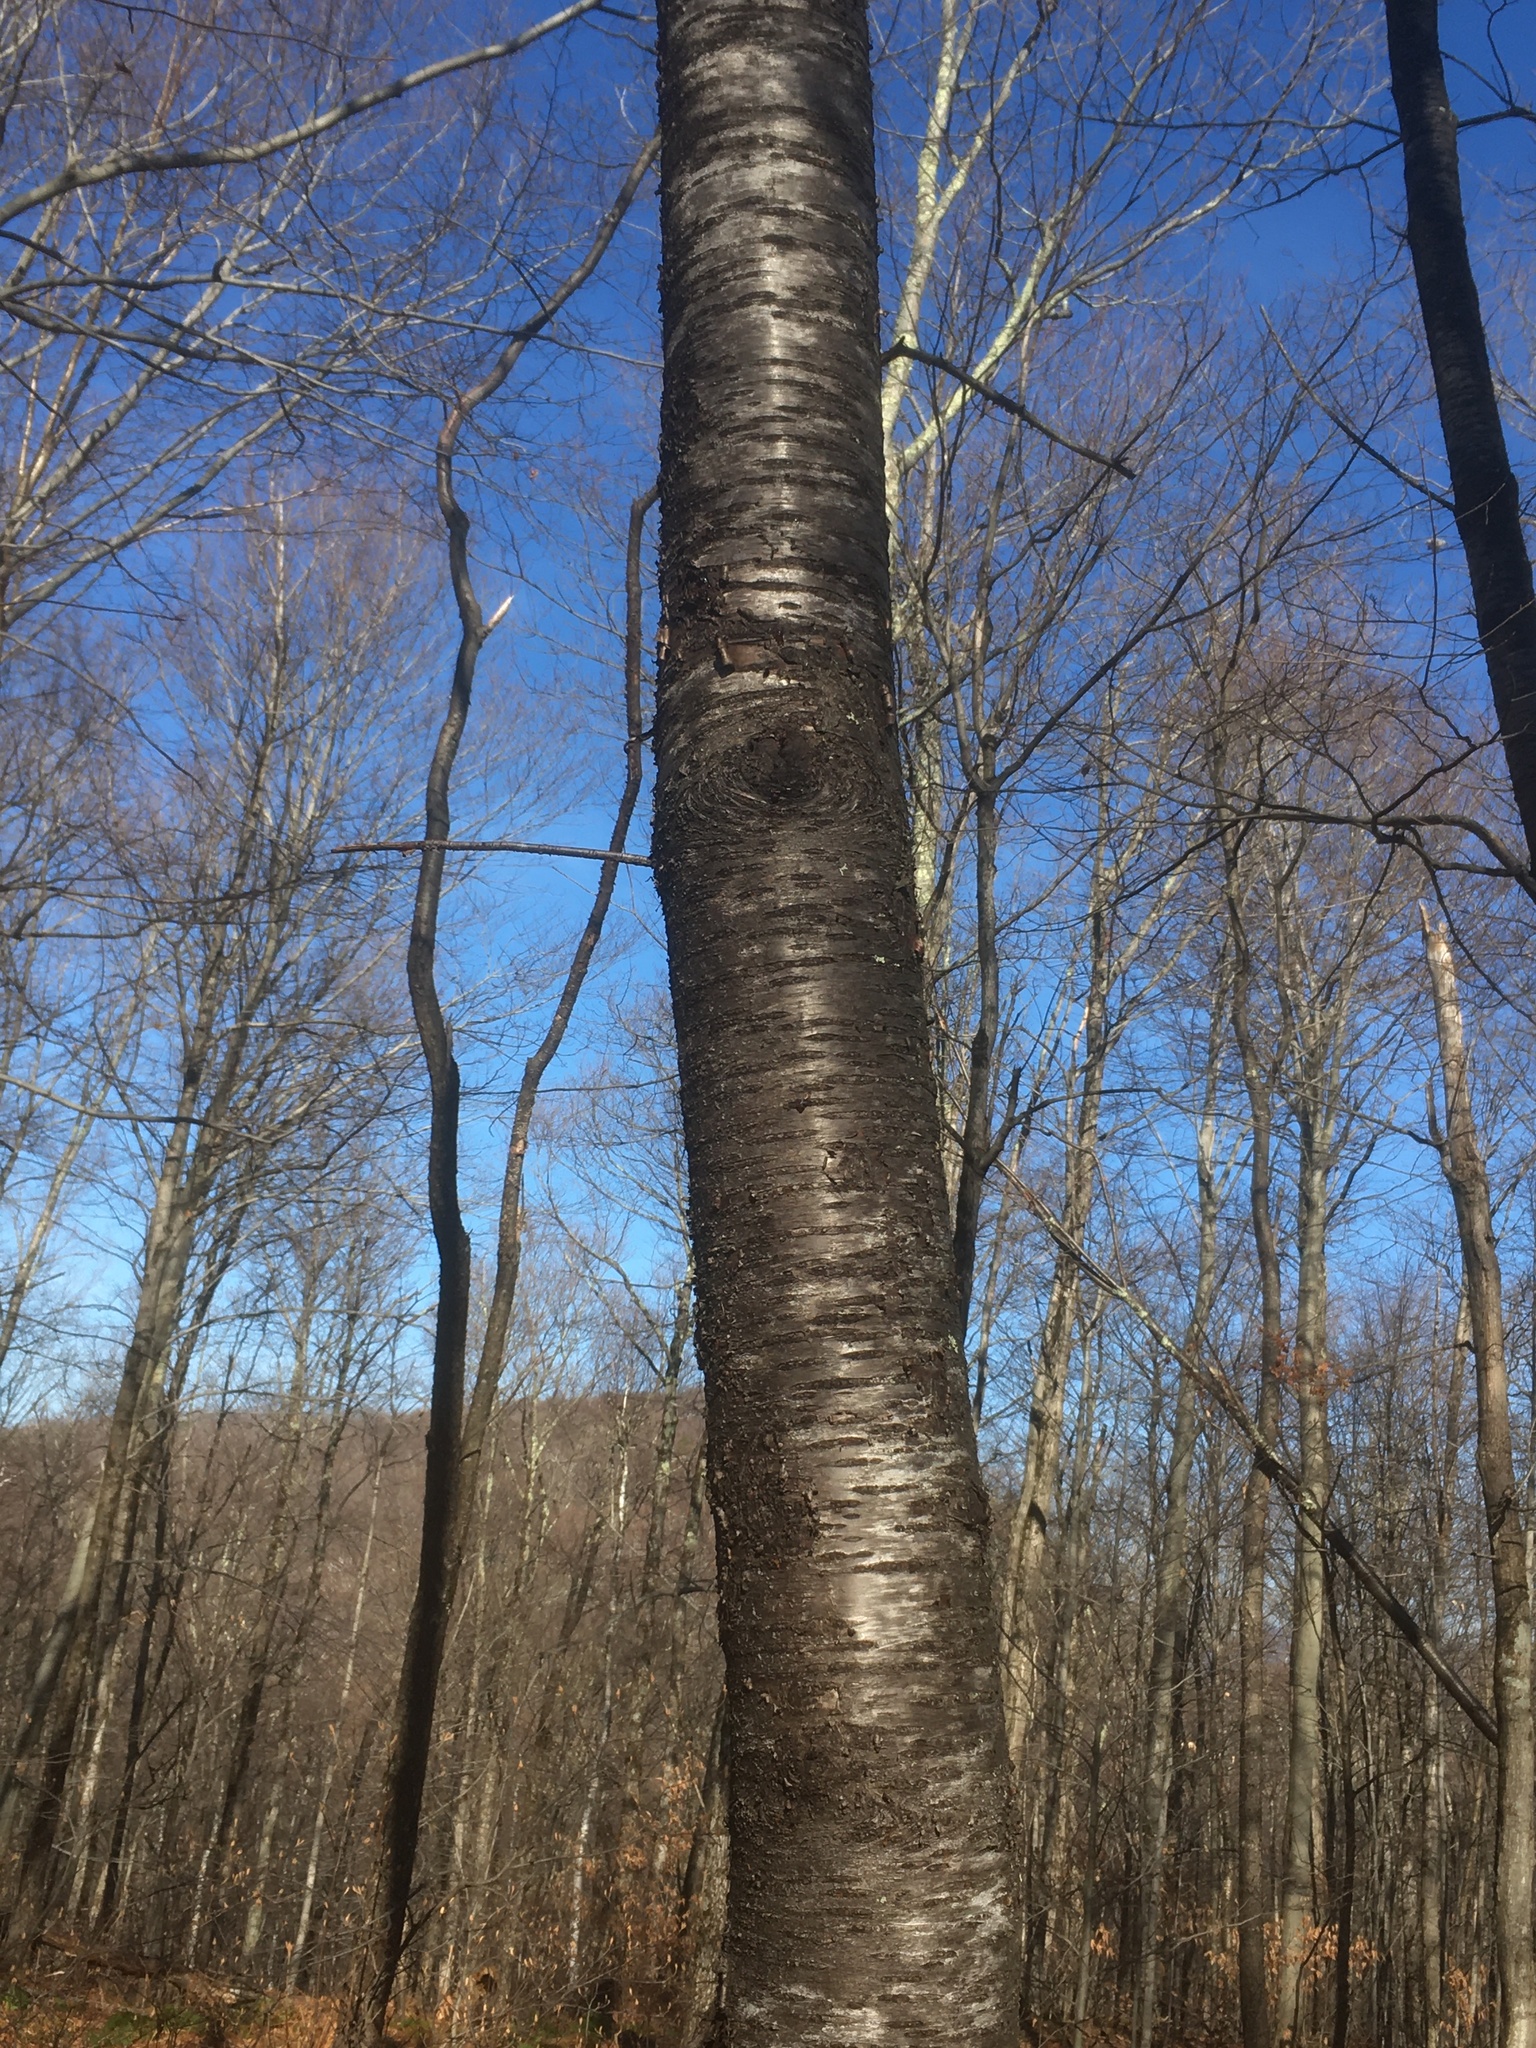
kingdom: Plantae
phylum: Tracheophyta
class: Magnoliopsida
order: Rosales
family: Rosaceae
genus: Prunus
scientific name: Prunus pensylvanica
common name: Pin cherry
